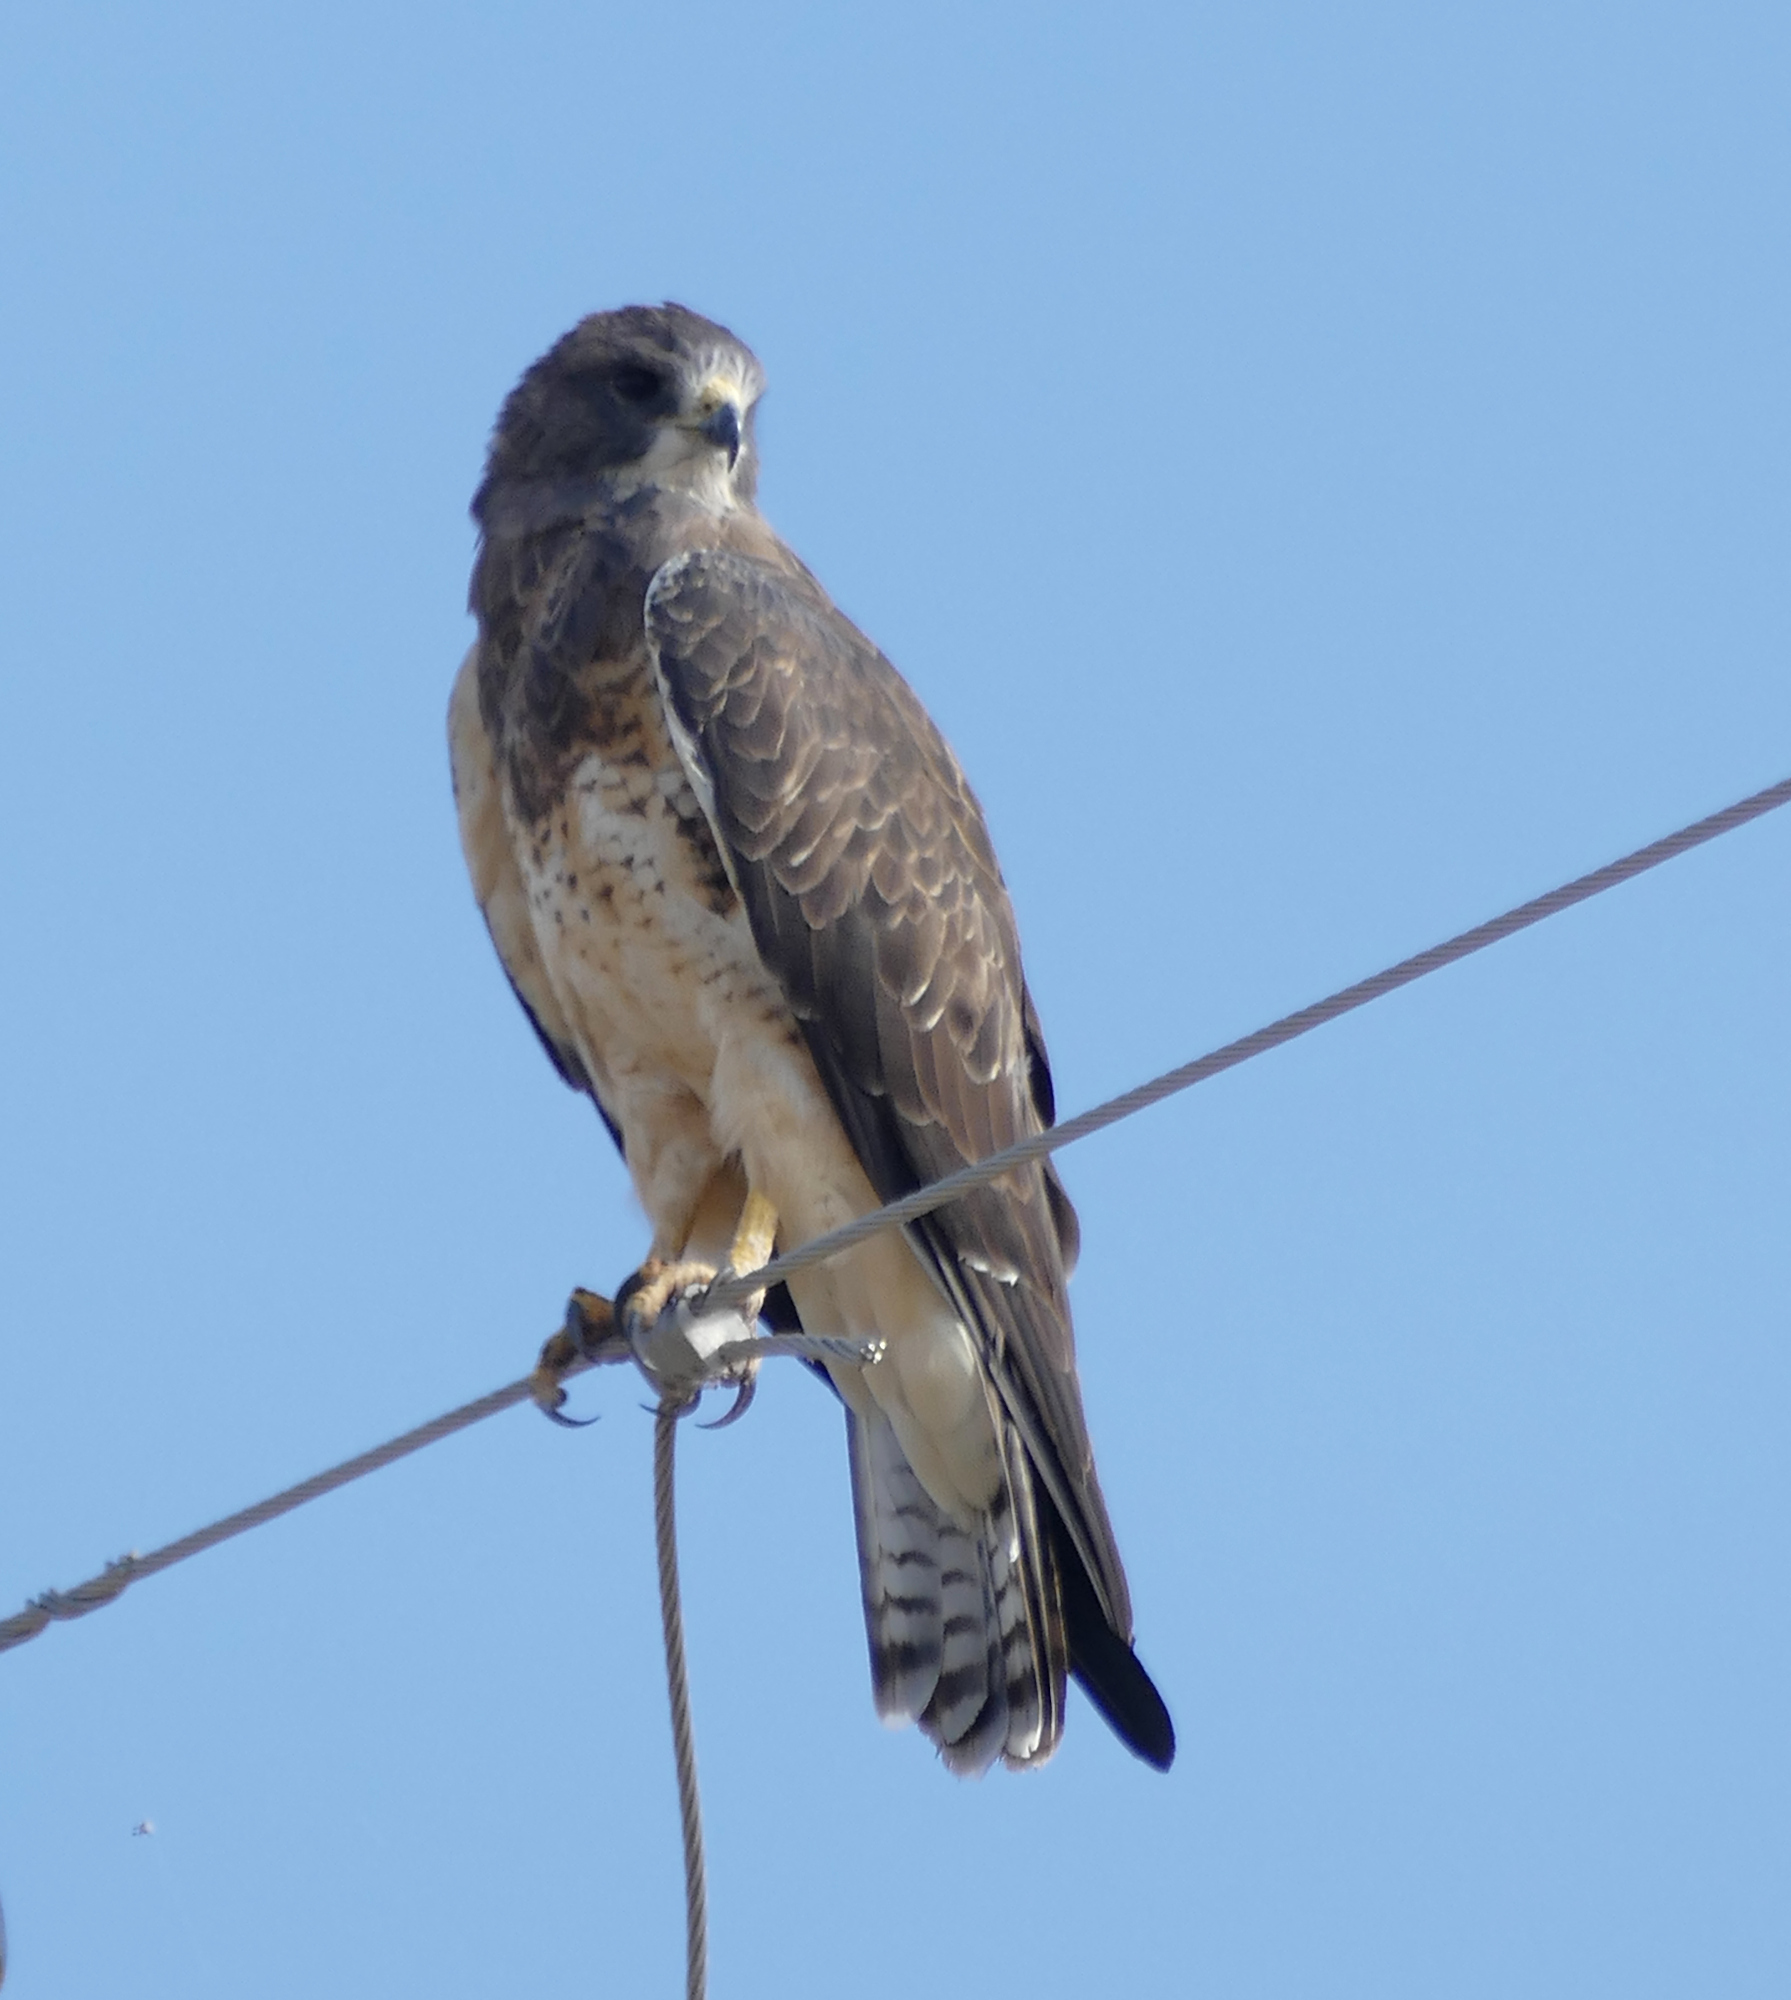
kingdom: Animalia
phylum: Chordata
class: Aves
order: Accipitriformes
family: Accipitridae
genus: Buteo
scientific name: Buteo swainsoni
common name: Swainson's hawk
